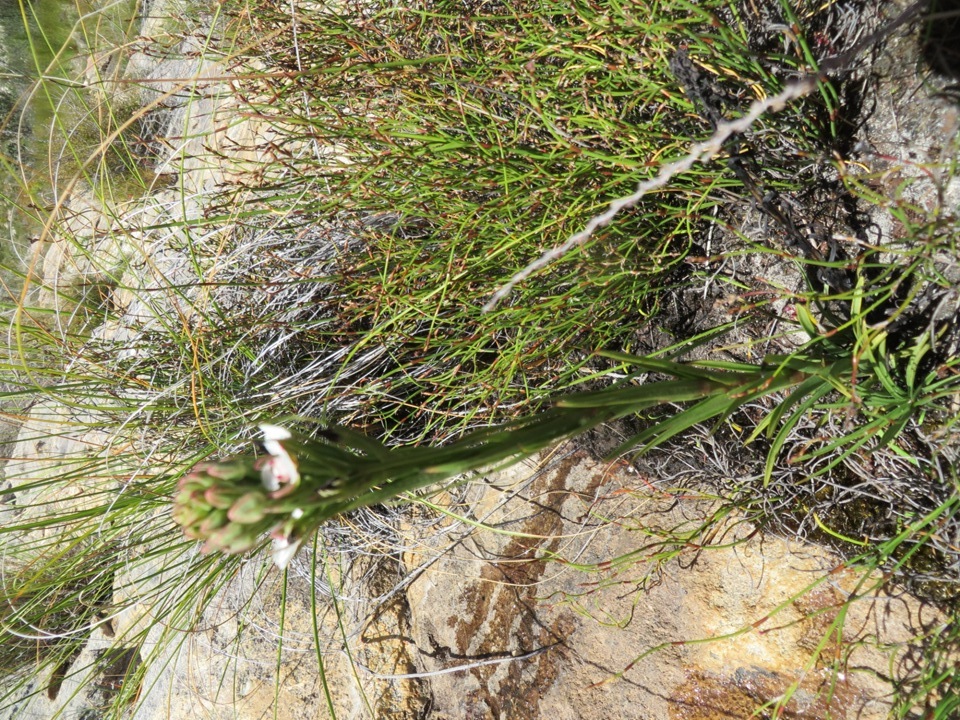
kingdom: Plantae
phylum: Tracheophyta
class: Liliopsida
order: Asparagales
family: Orchidaceae
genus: Ceratandra
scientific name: Ceratandra globosa
